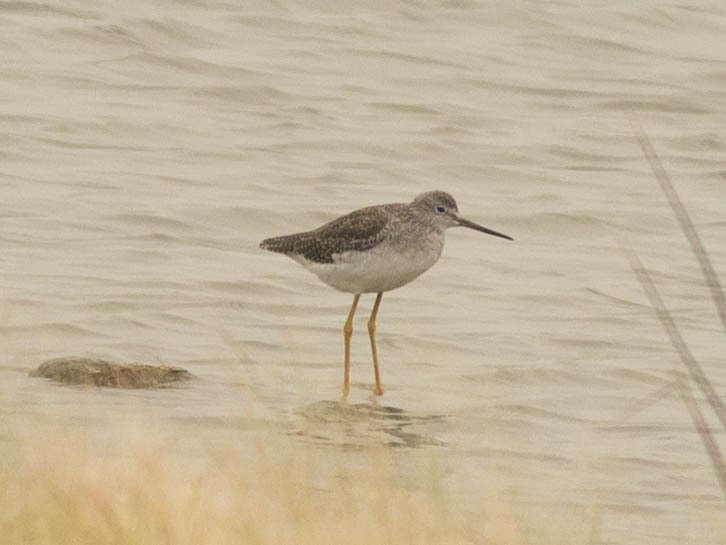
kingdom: Animalia
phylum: Chordata
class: Aves
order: Charadriiformes
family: Scolopacidae
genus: Tringa
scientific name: Tringa melanoleuca
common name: Greater yellowlegs
